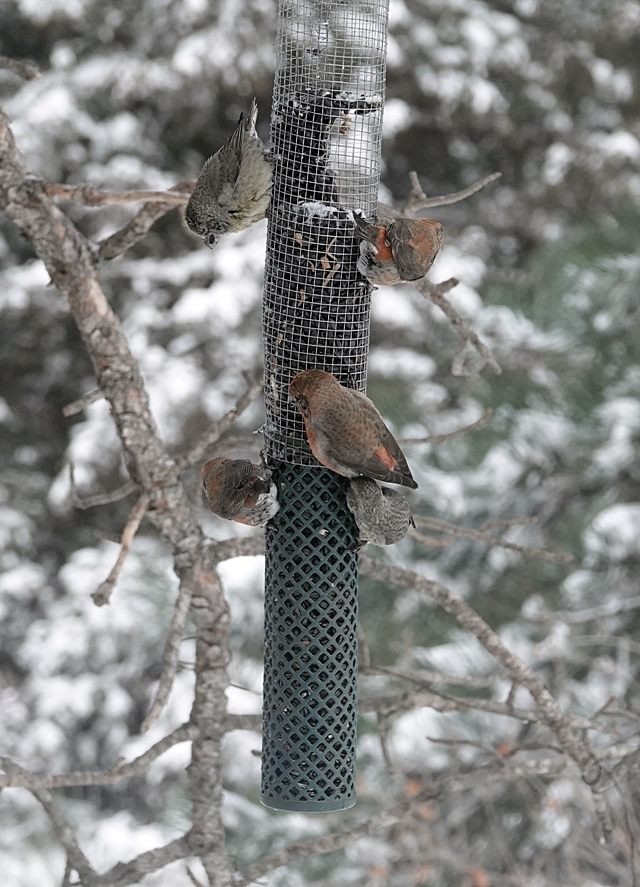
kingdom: Animalia
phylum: Chordata
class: Aves
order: Passeriformes
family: Fringillidae
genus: Loxia
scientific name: Loxia curvirostra
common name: Red crossbill
